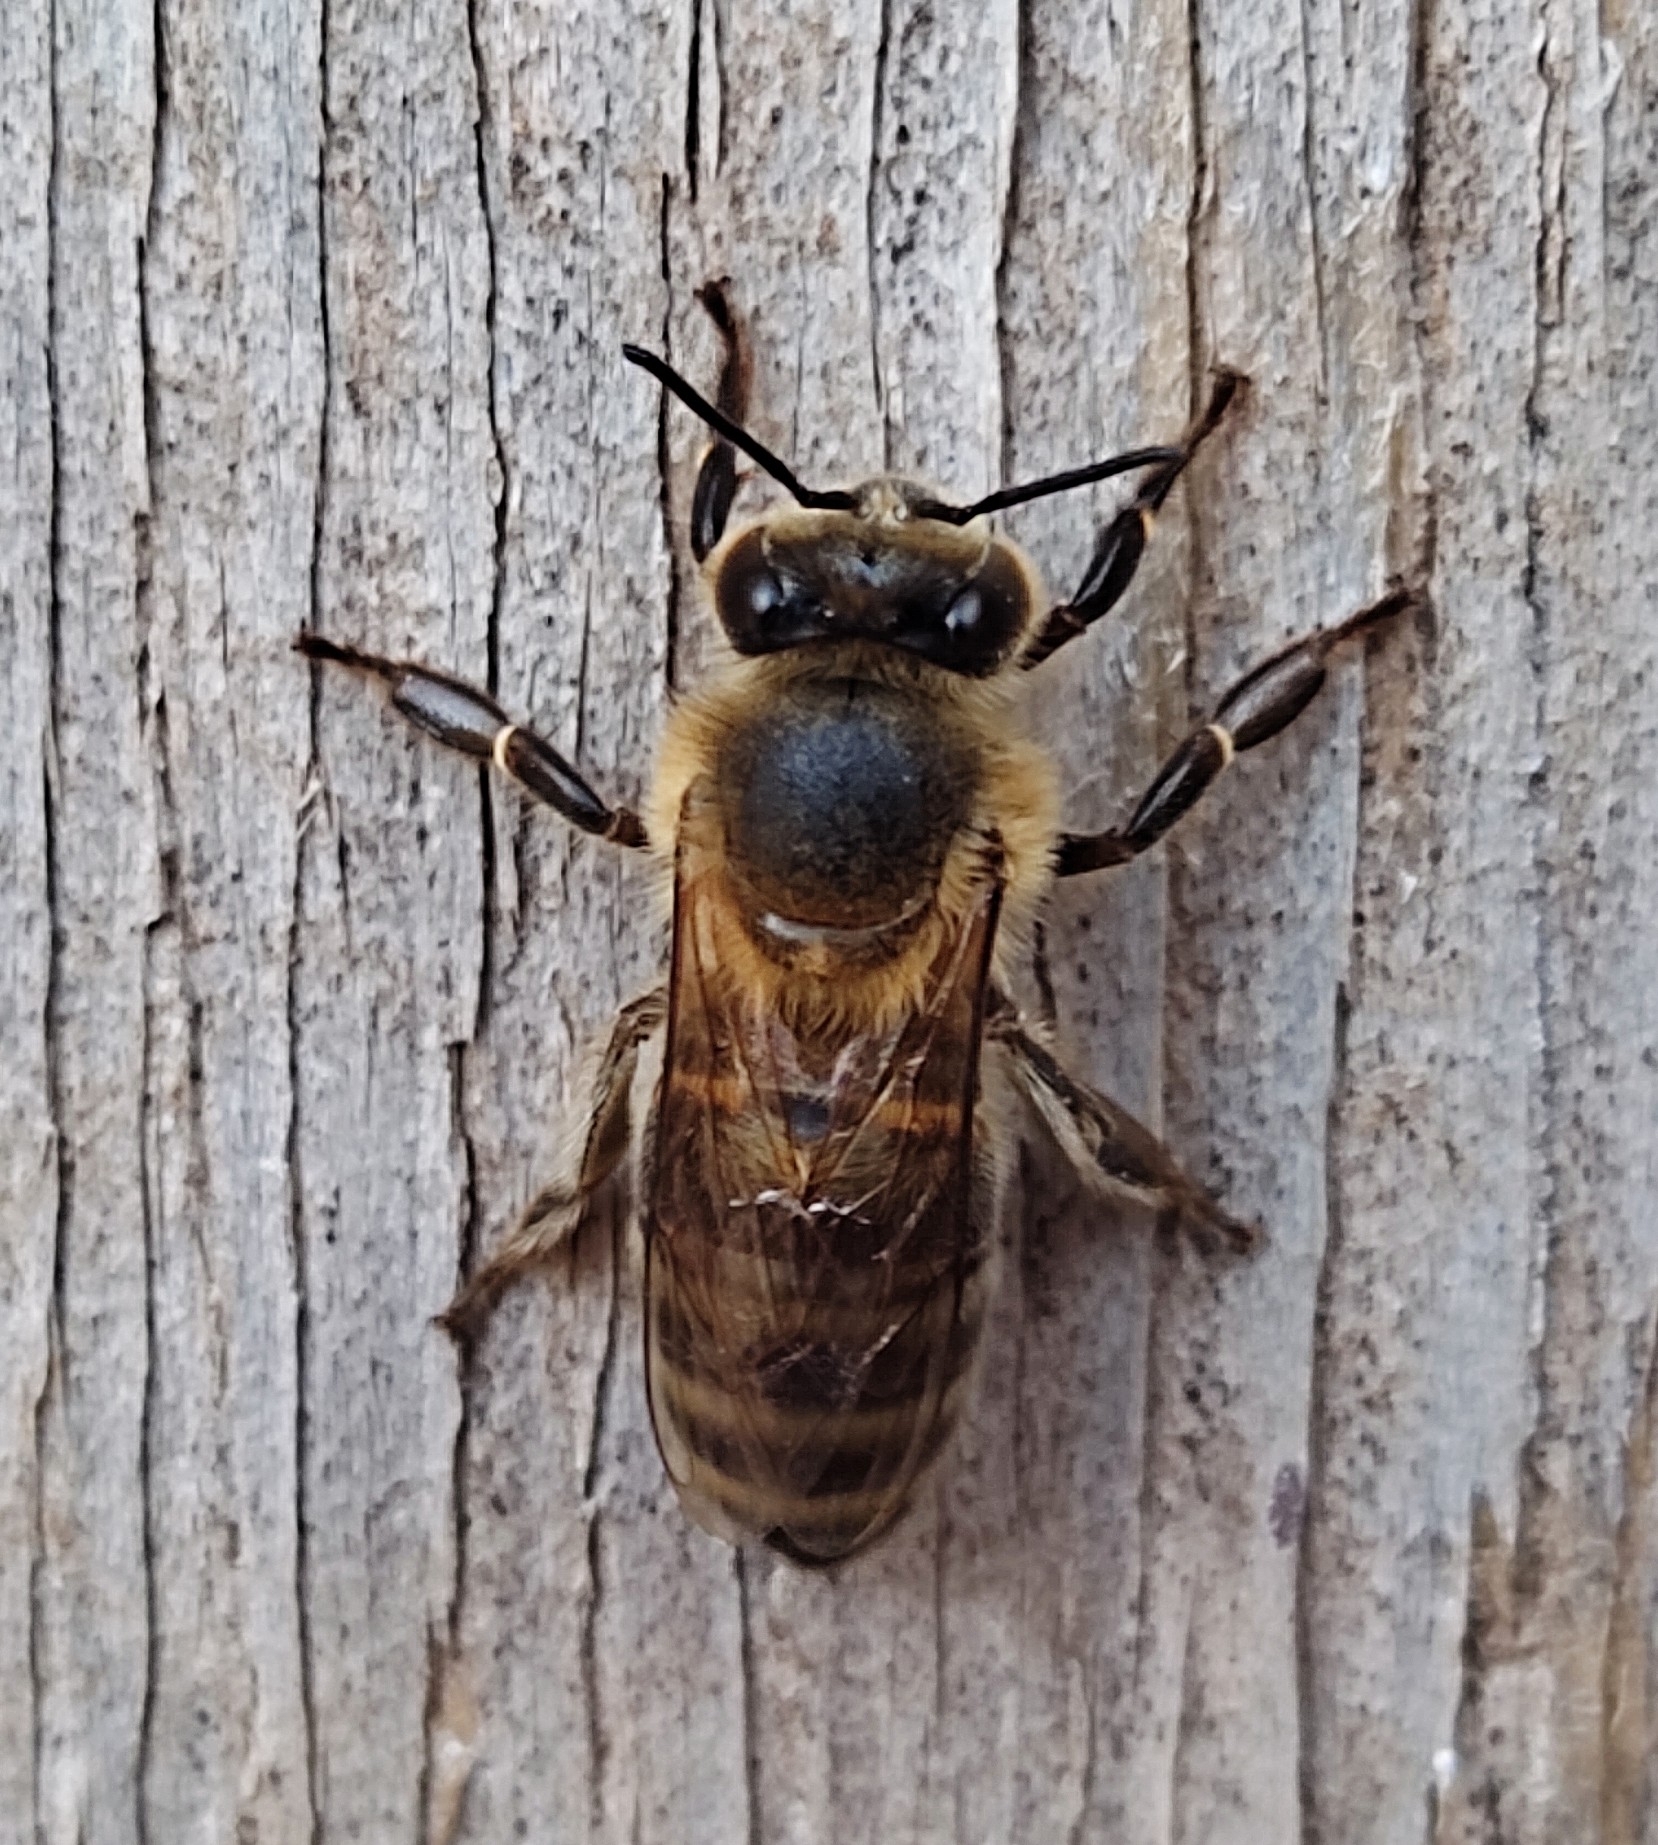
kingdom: Animalia
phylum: Arthropoda
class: Insecta
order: Hymenoptera
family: Apidae
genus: Apis
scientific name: Apis mellifera
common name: Honey bee
